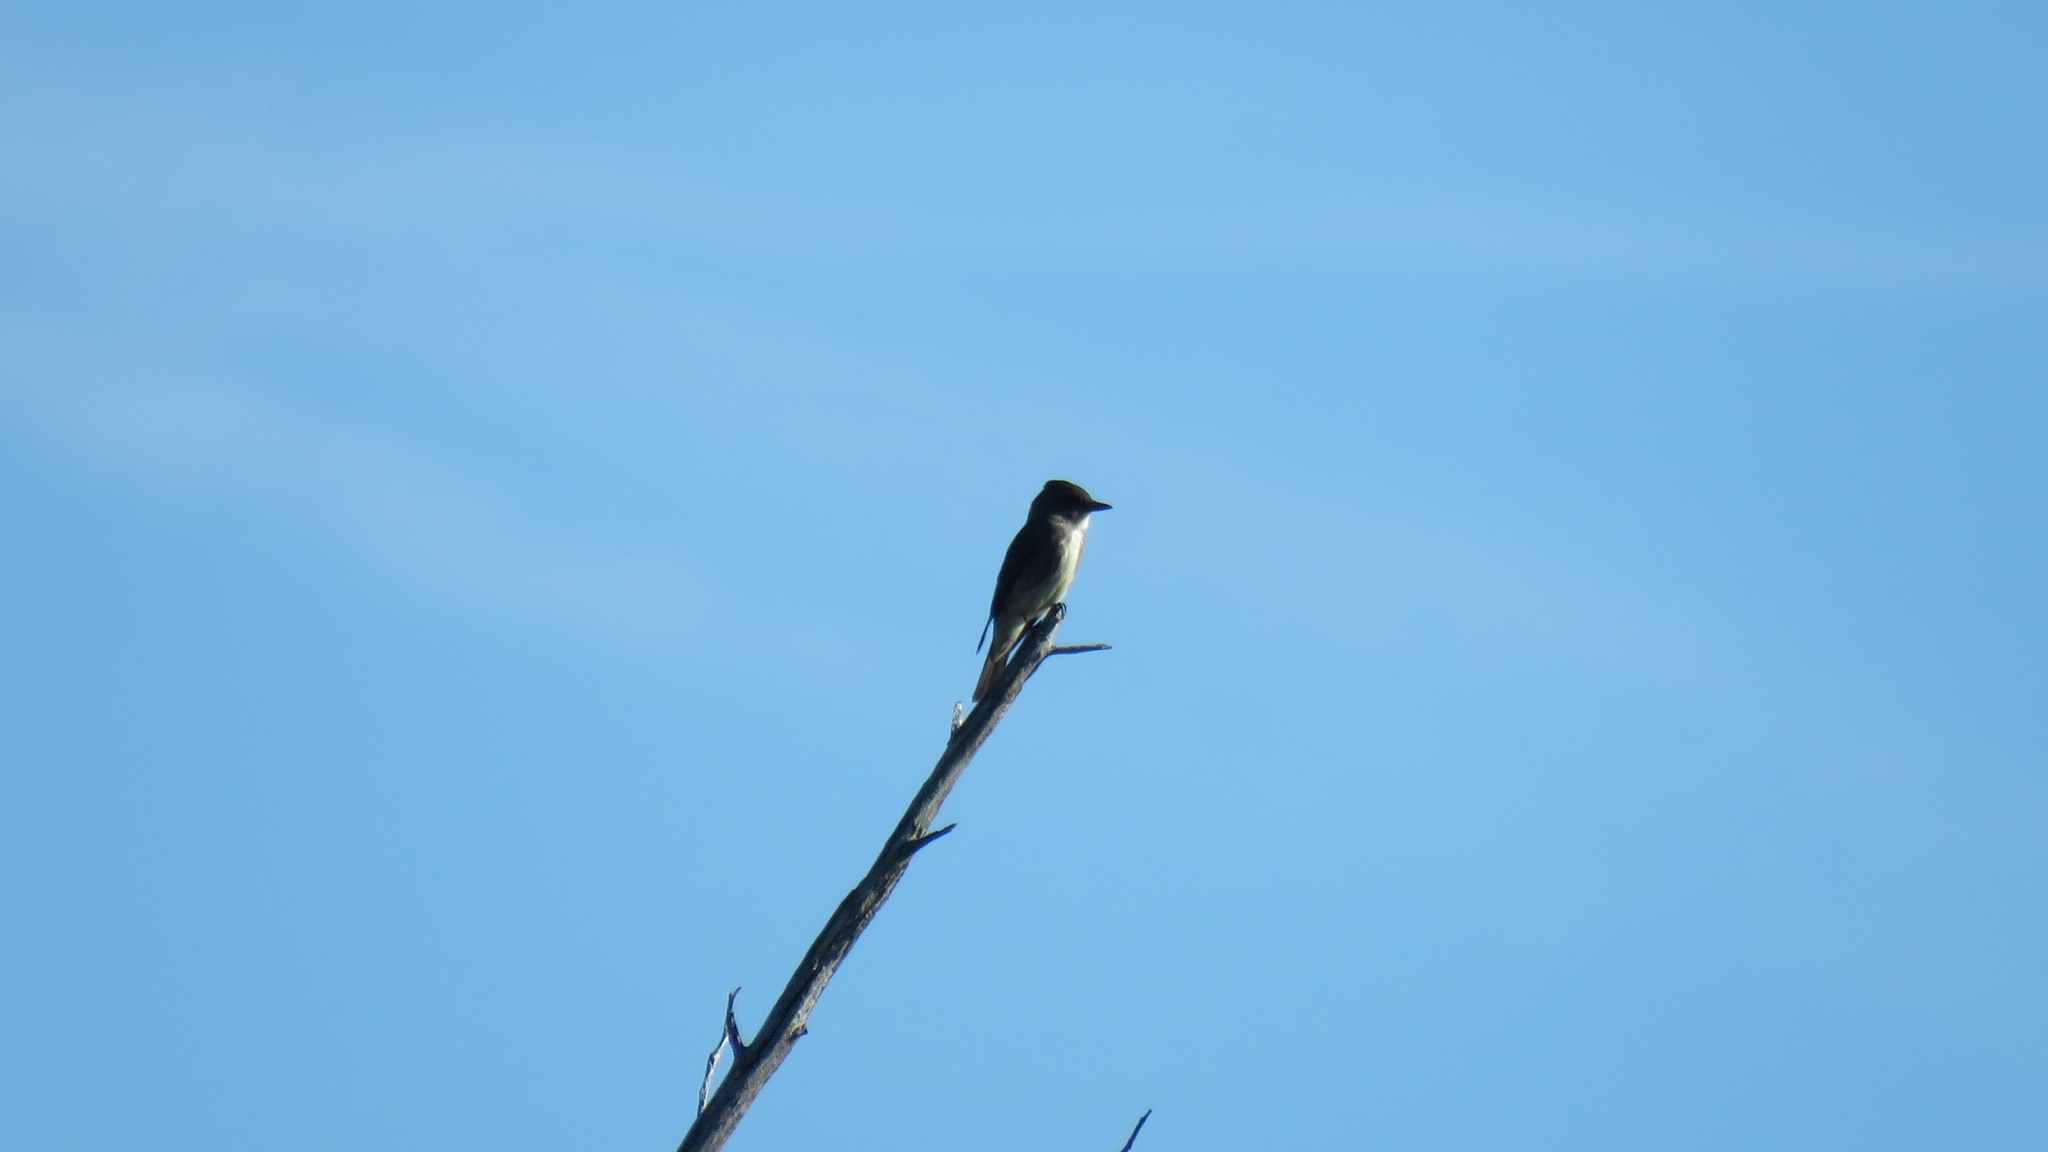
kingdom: Animalia
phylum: Chordata
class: Aves
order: Passeriformes
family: Tyrannidae
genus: Contopus
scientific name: Contopus cooperi
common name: Olive-sided flycatcher
